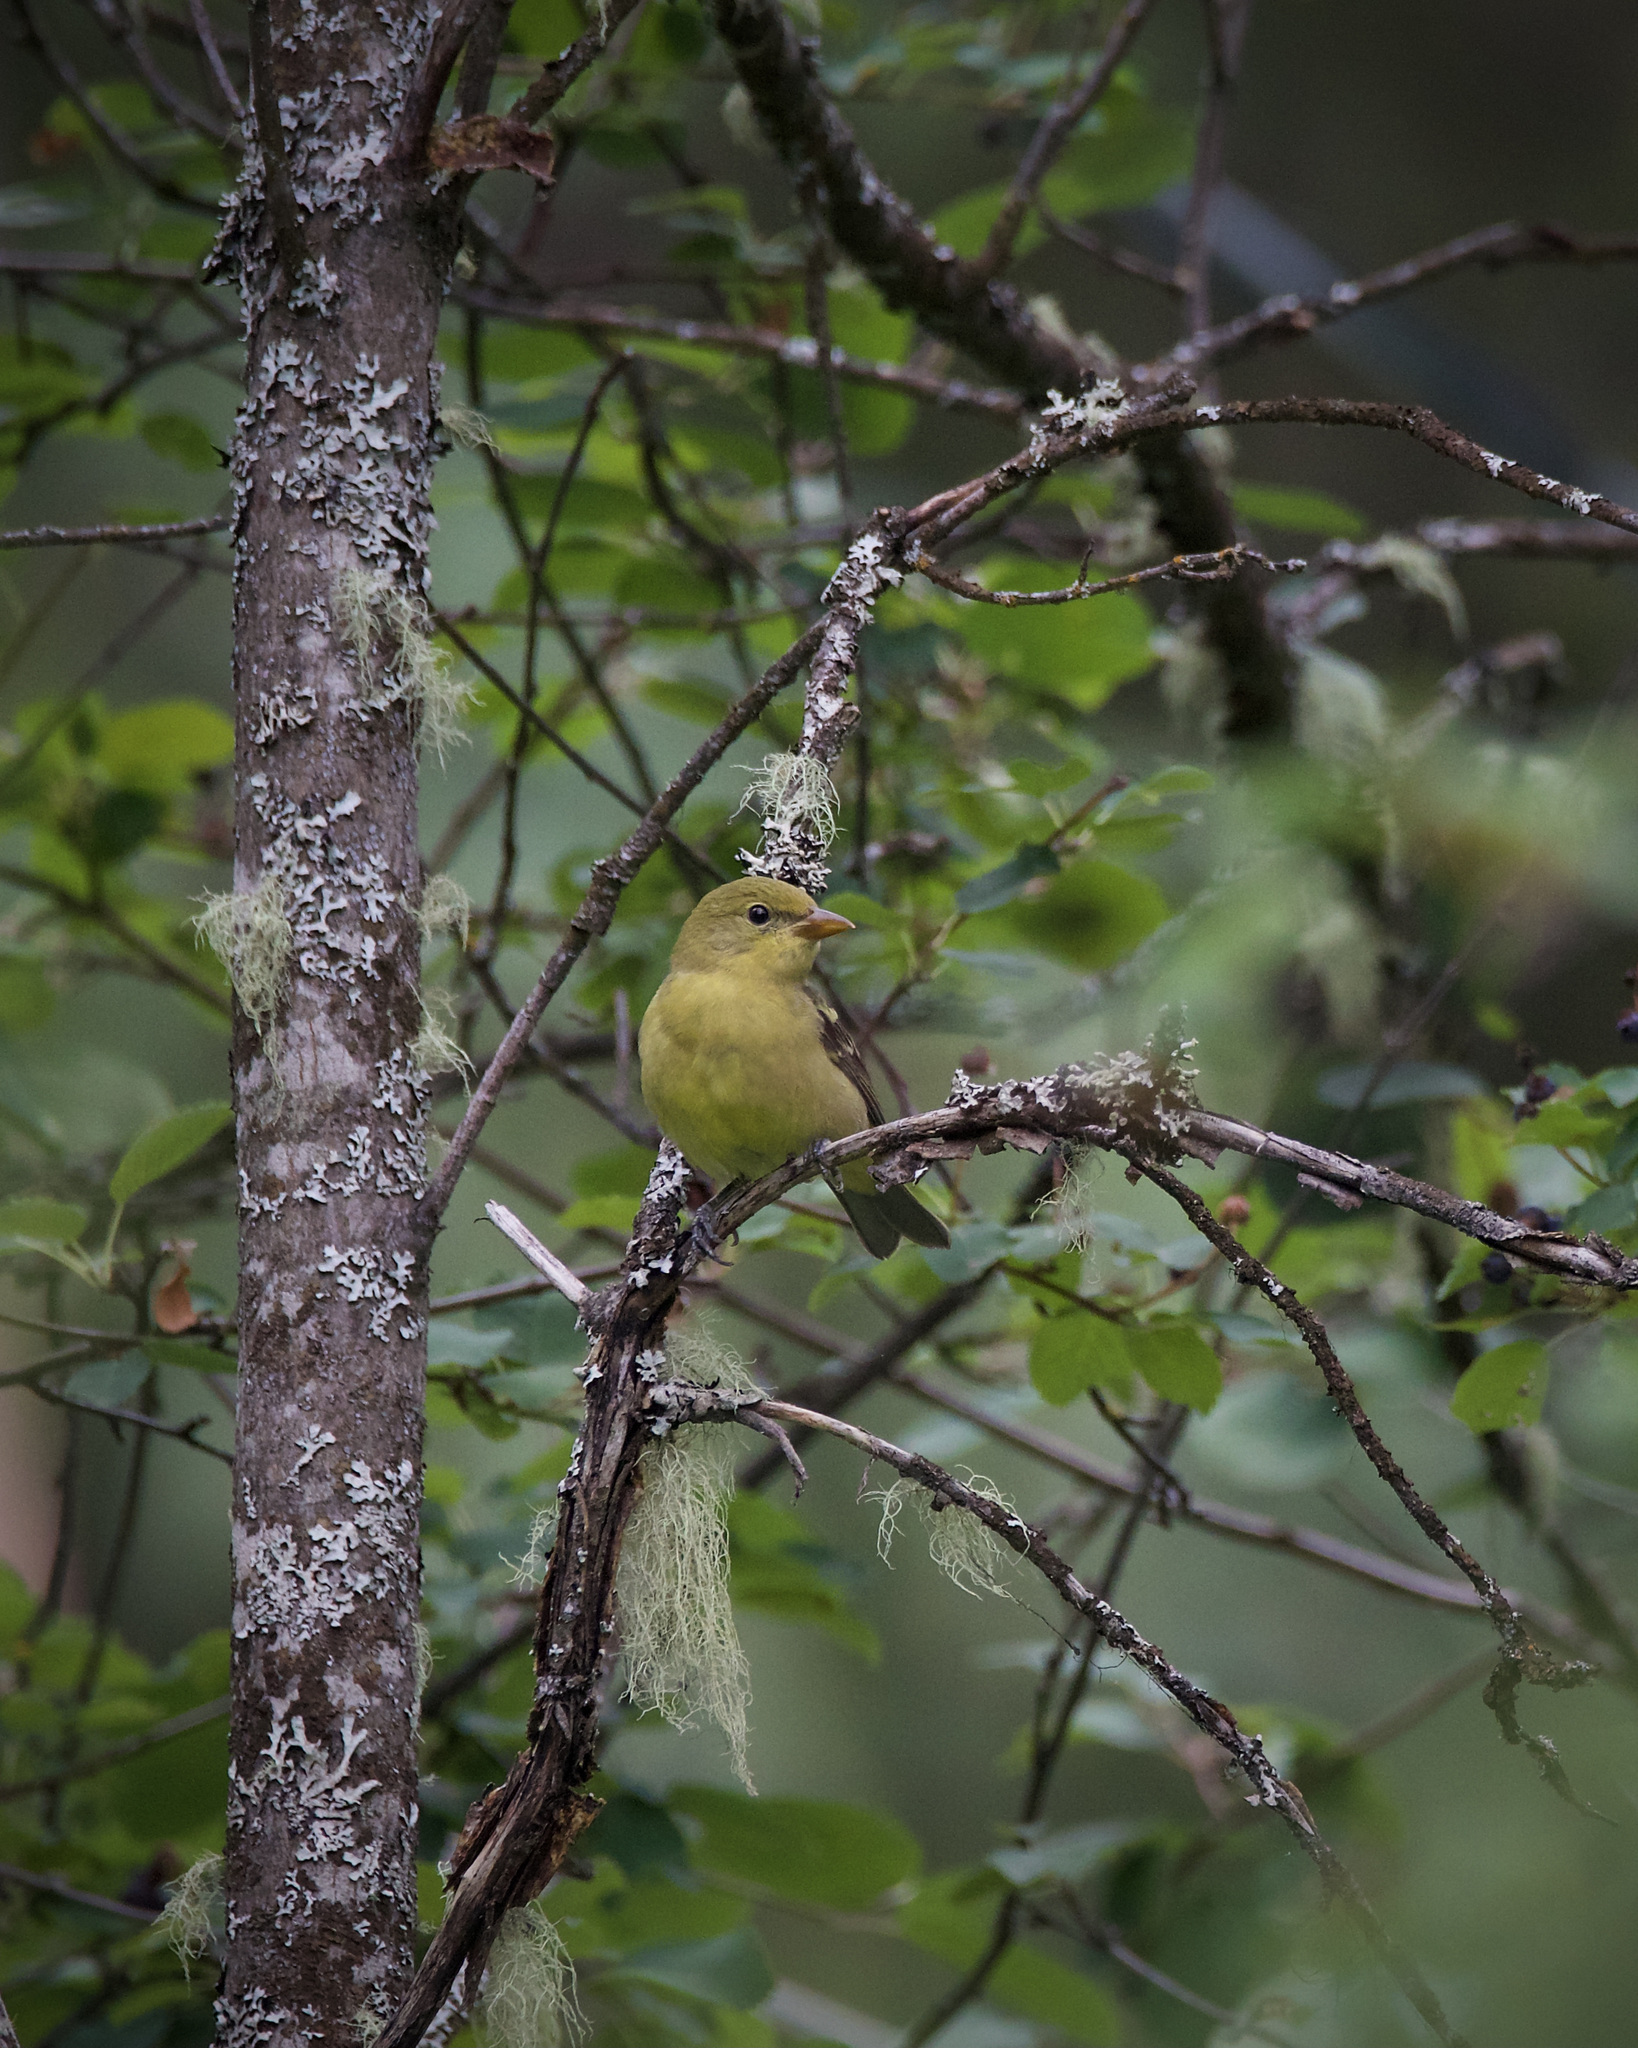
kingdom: Animalia
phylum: Chordata
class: Aves
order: Passeriformes
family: Cardinalidae
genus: Piranga
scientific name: Piranga ludoviciana
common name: Western tanager
